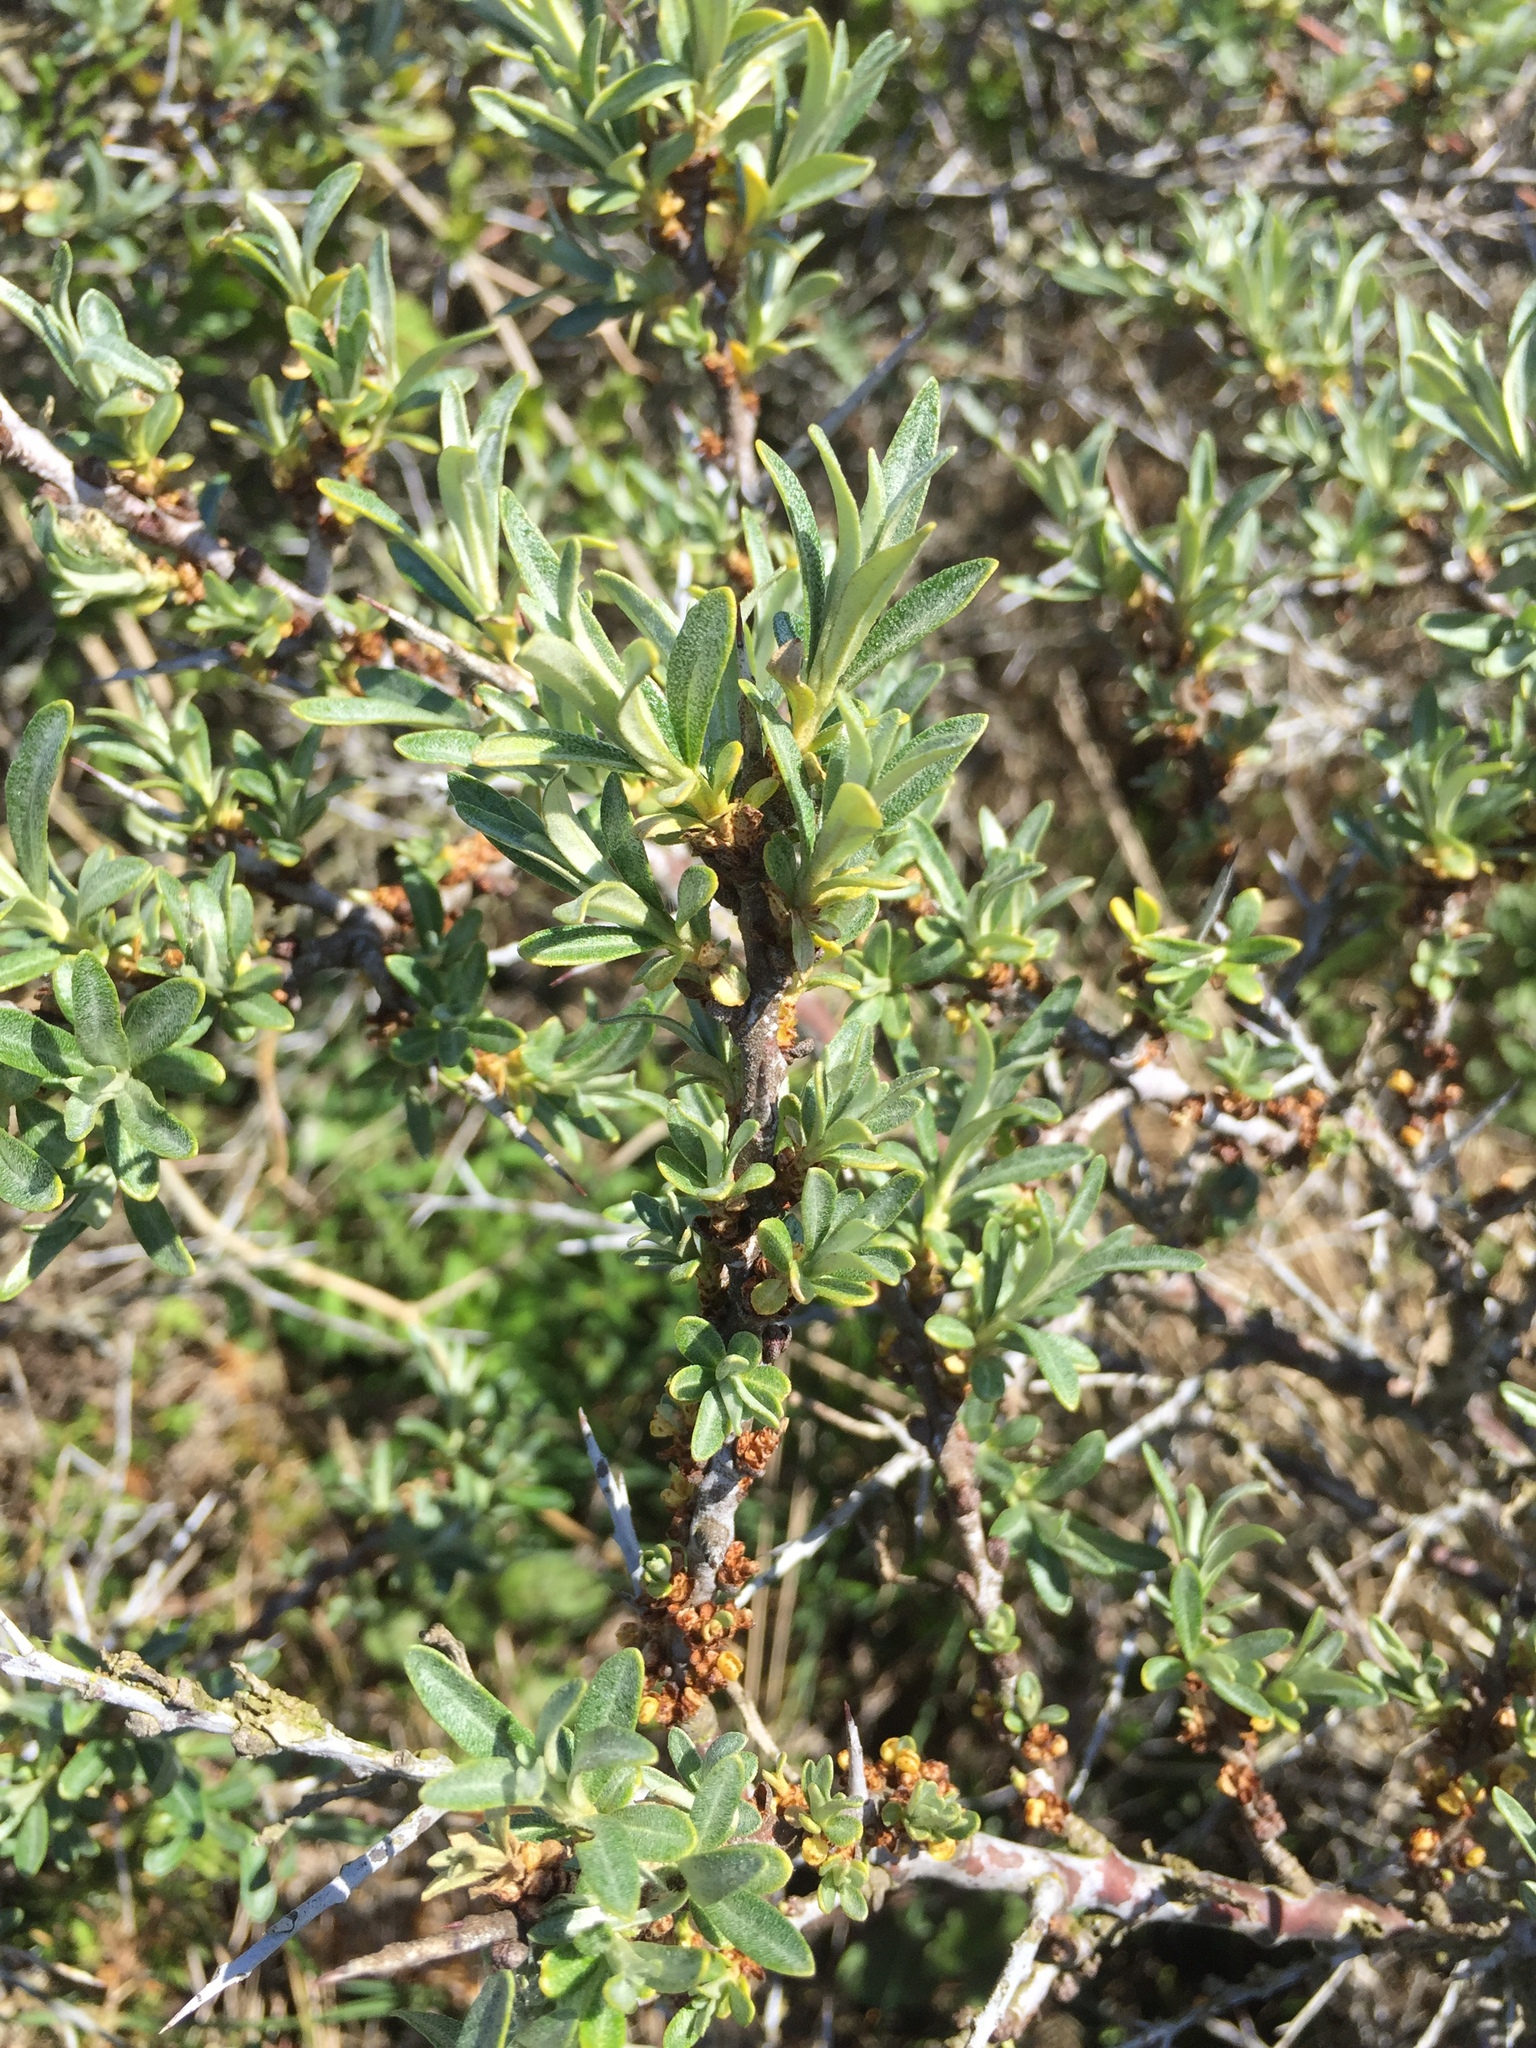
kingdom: Plantae
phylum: Tracheophyta
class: Magnoliopsida
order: Rosales
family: Elaeagnaceae
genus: Hippophae
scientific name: Hippophae rhamnoides
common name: Sea-buckthorn
